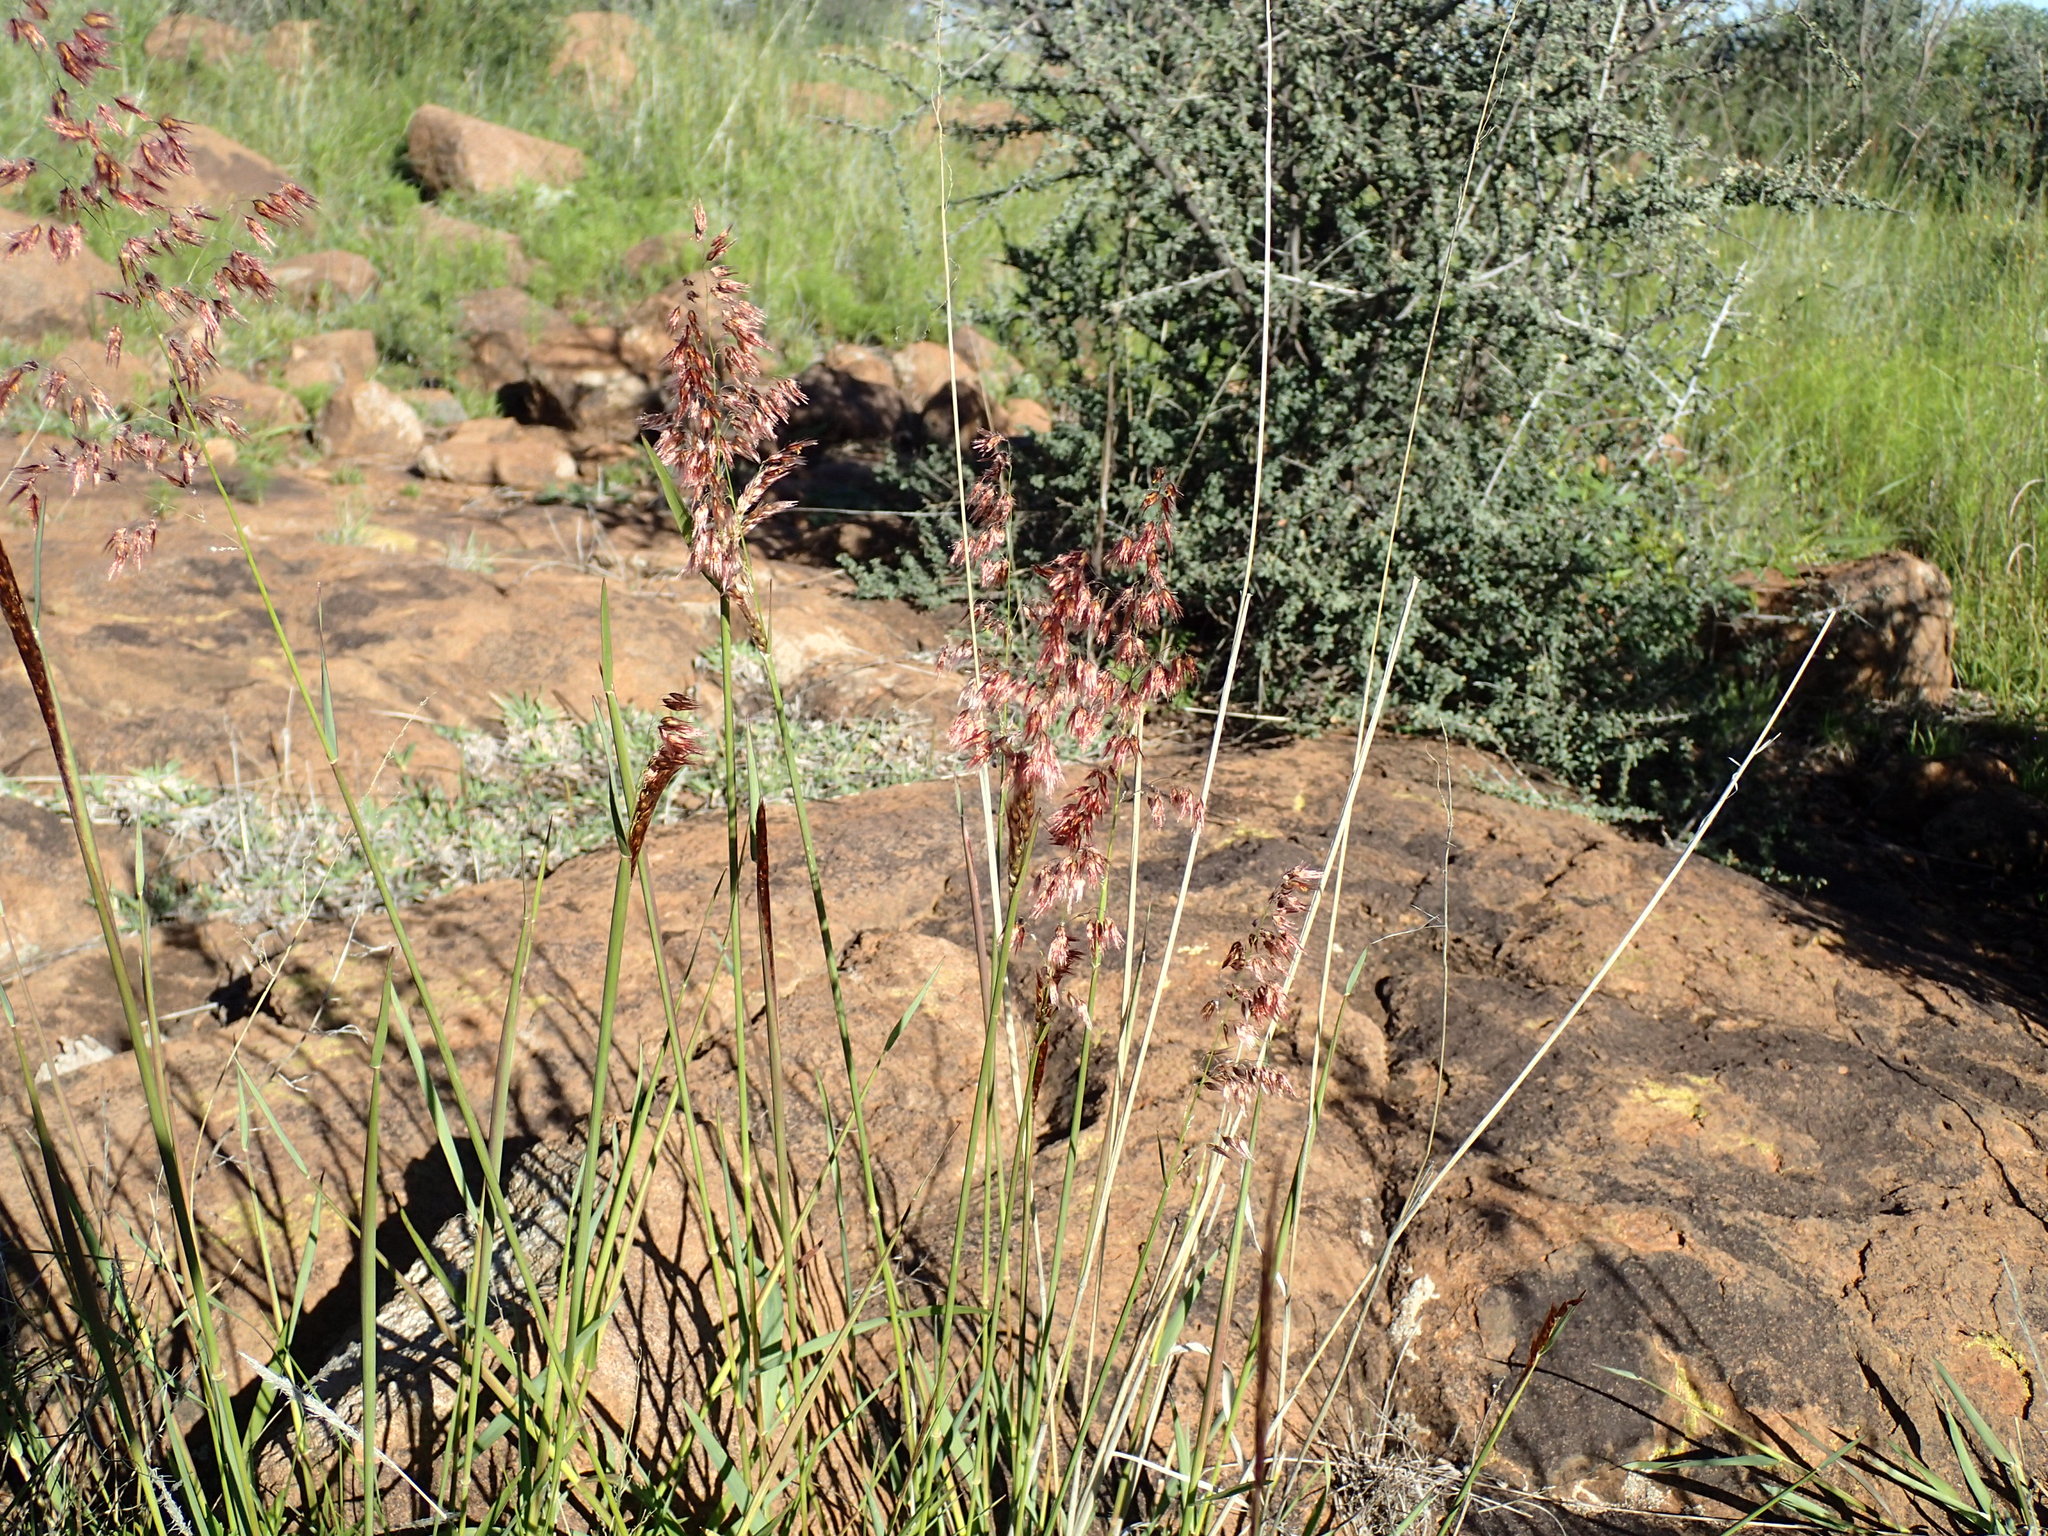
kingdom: Plantae
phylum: Tracheophyta
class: Liliopsida
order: Poales
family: Poaceae
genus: Melinis
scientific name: Melinis repens
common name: Rose natal grass
